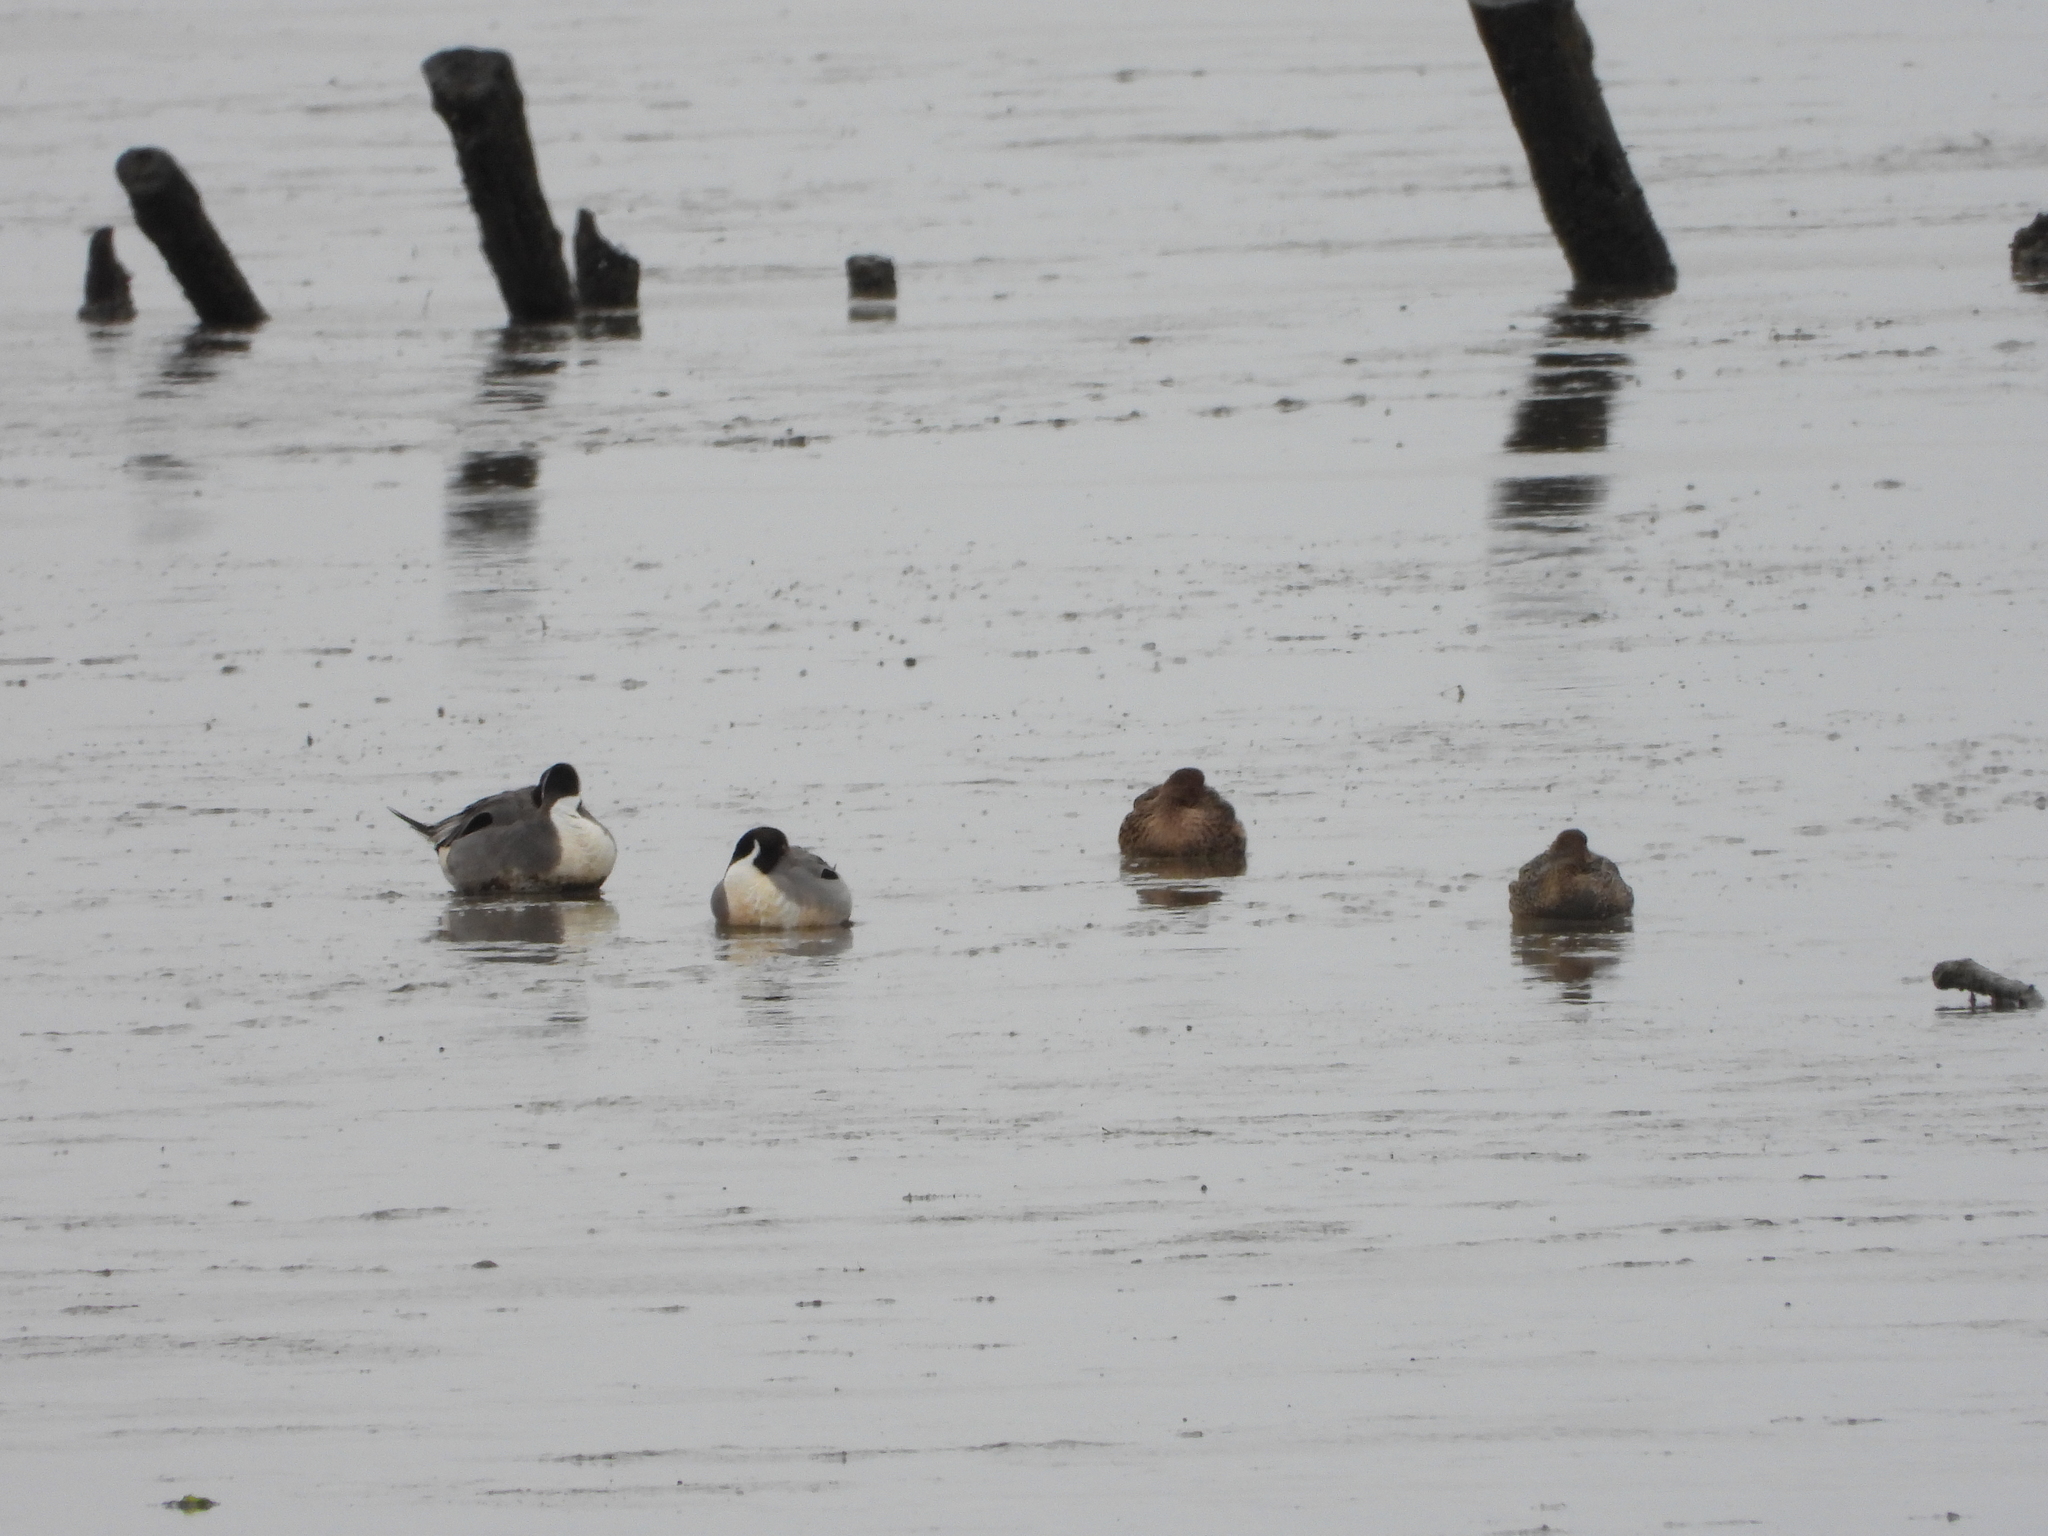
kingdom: Animalia
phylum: Chordata
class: Aves
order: Anseriformes
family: Anatidae
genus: Anas
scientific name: Anas acuta
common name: Northern pintail
